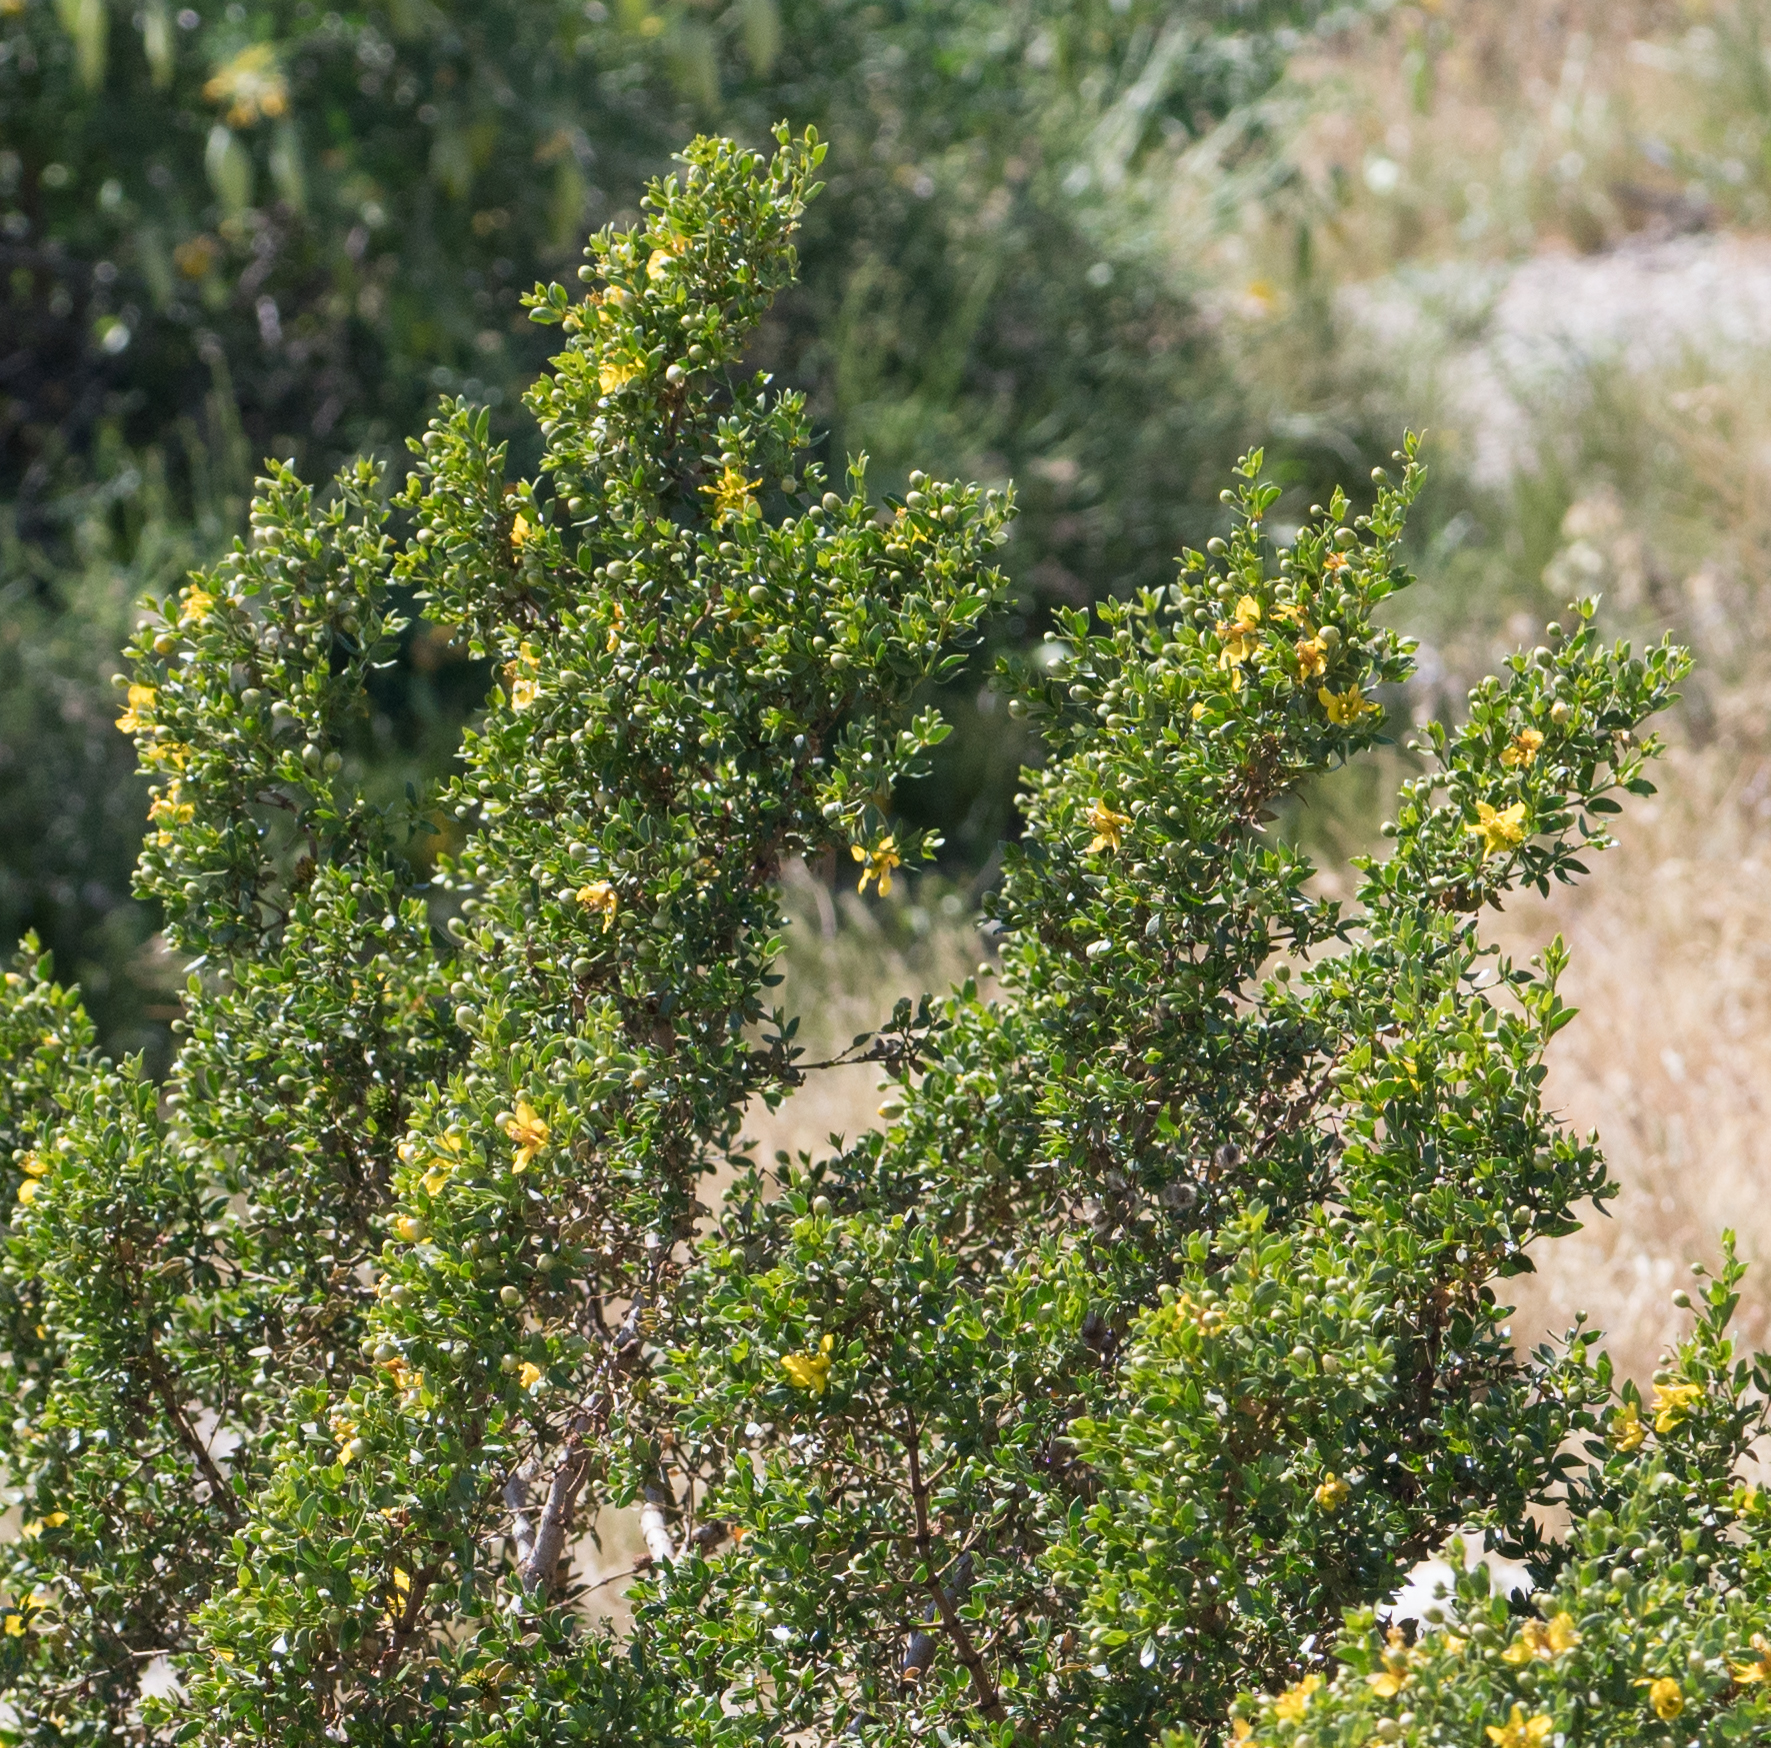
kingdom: Plantae
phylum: Tracheophyta
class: Magnoliopsida
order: Zygophyllales
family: Zygophyllaceae
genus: Larrea
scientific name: Larrea tridentata
